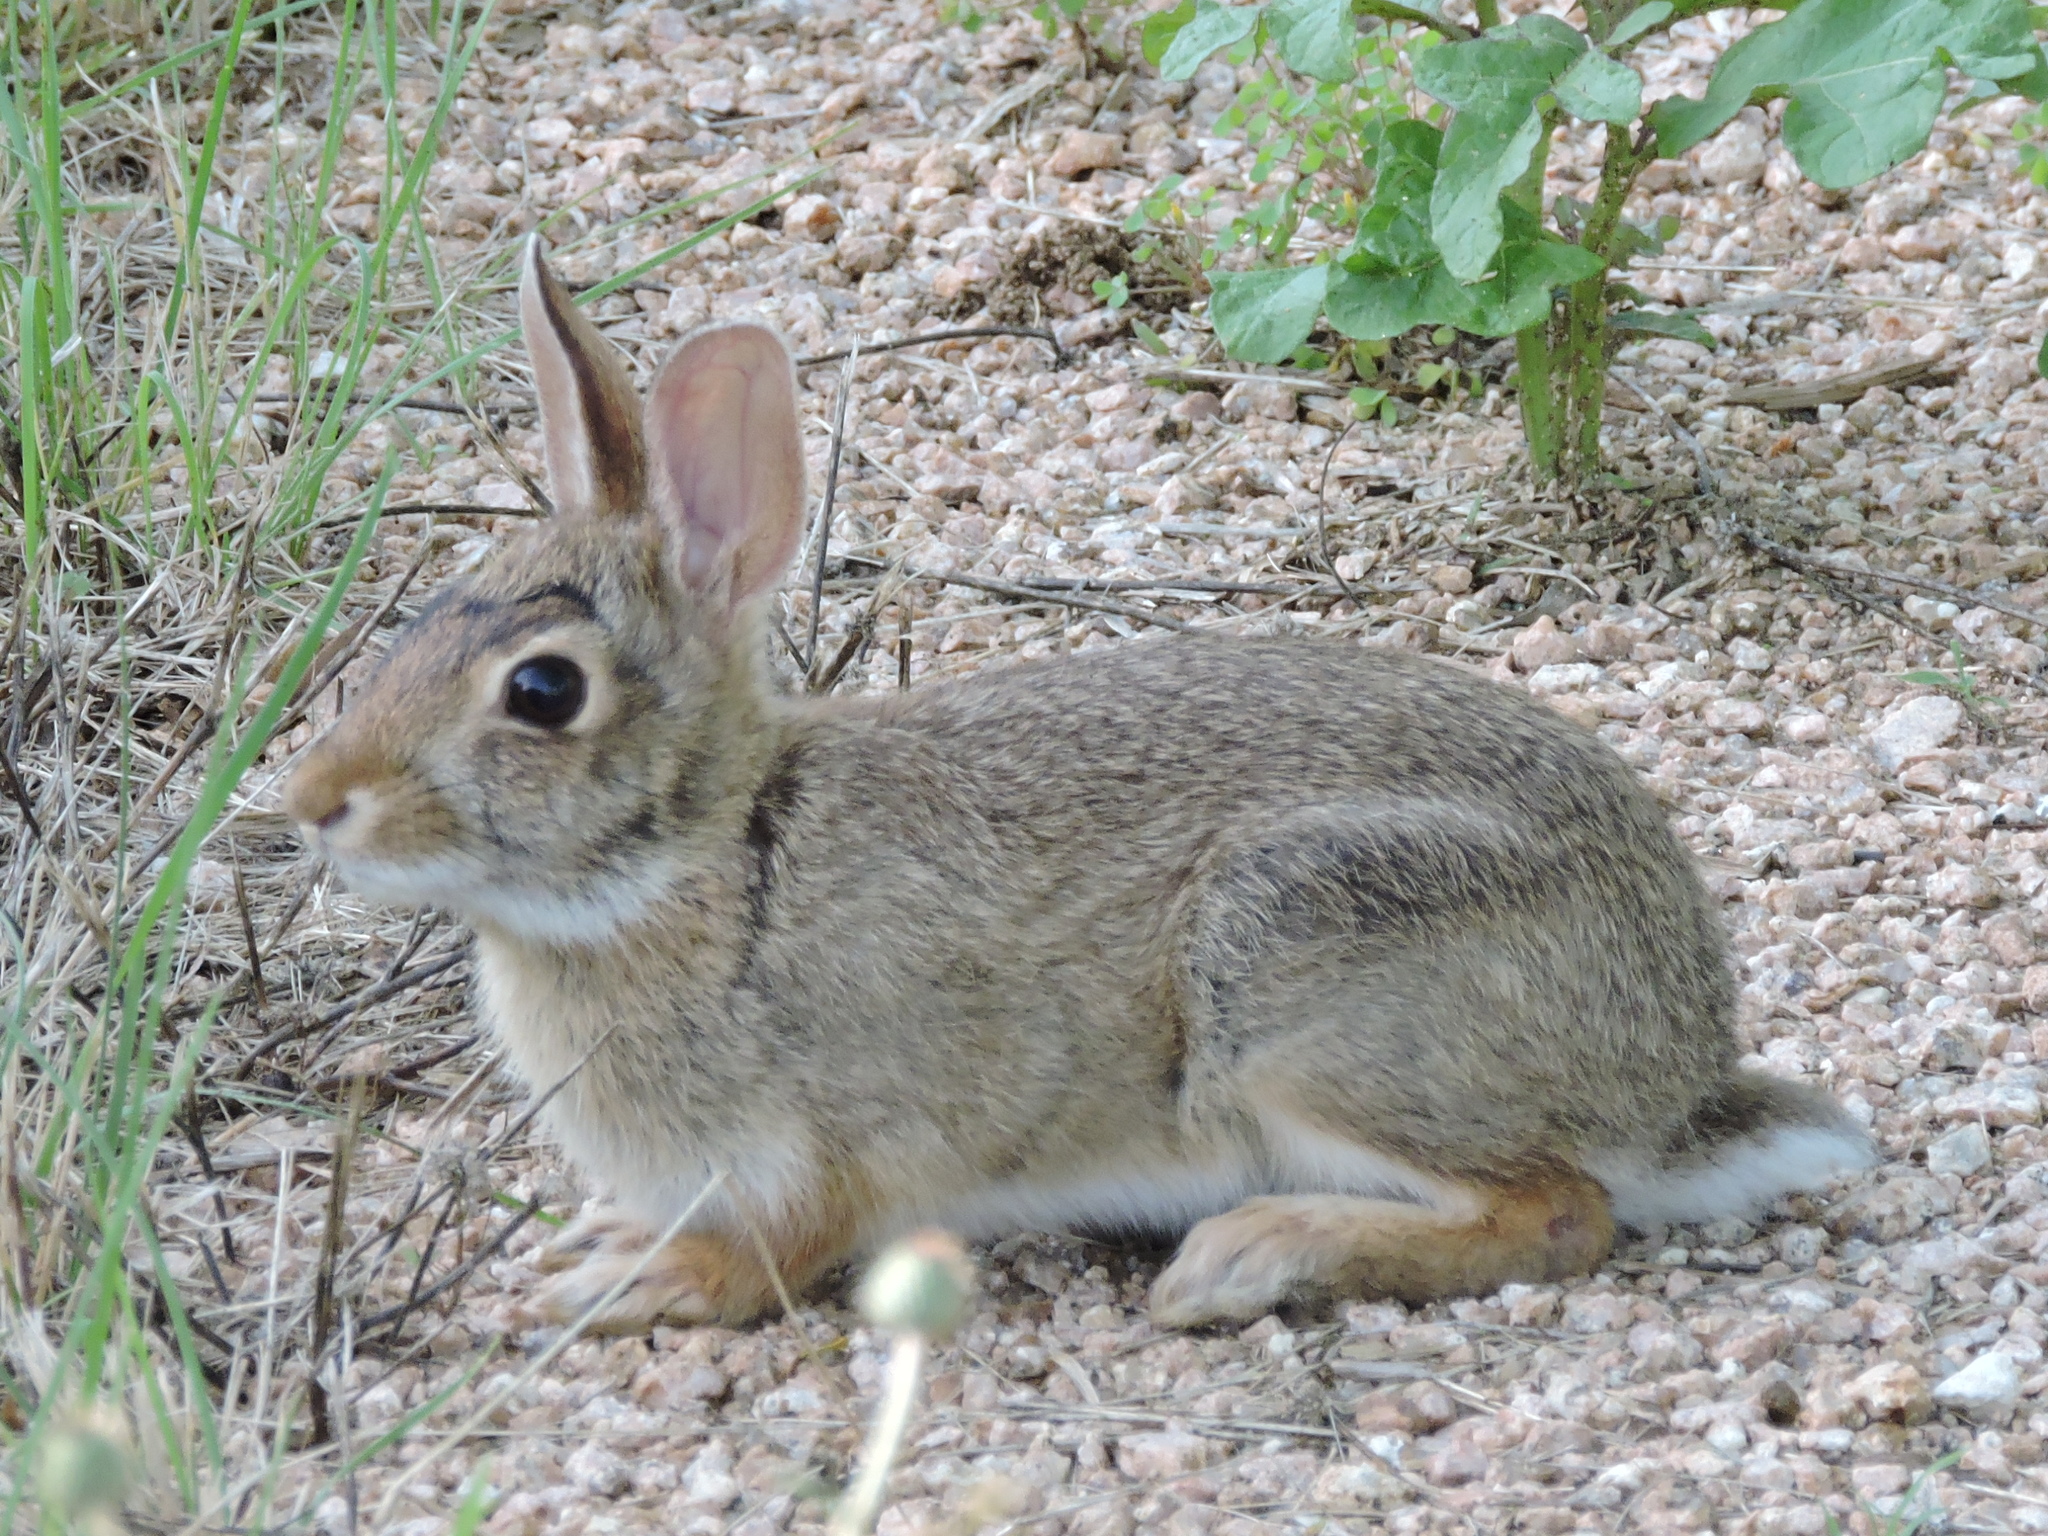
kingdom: Animalia
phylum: Chordata
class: Mammalia
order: Lagomorpha
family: Leporidae
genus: Sylvilagus
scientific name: Sylvilagus floridanus
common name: Eastern cottontail
